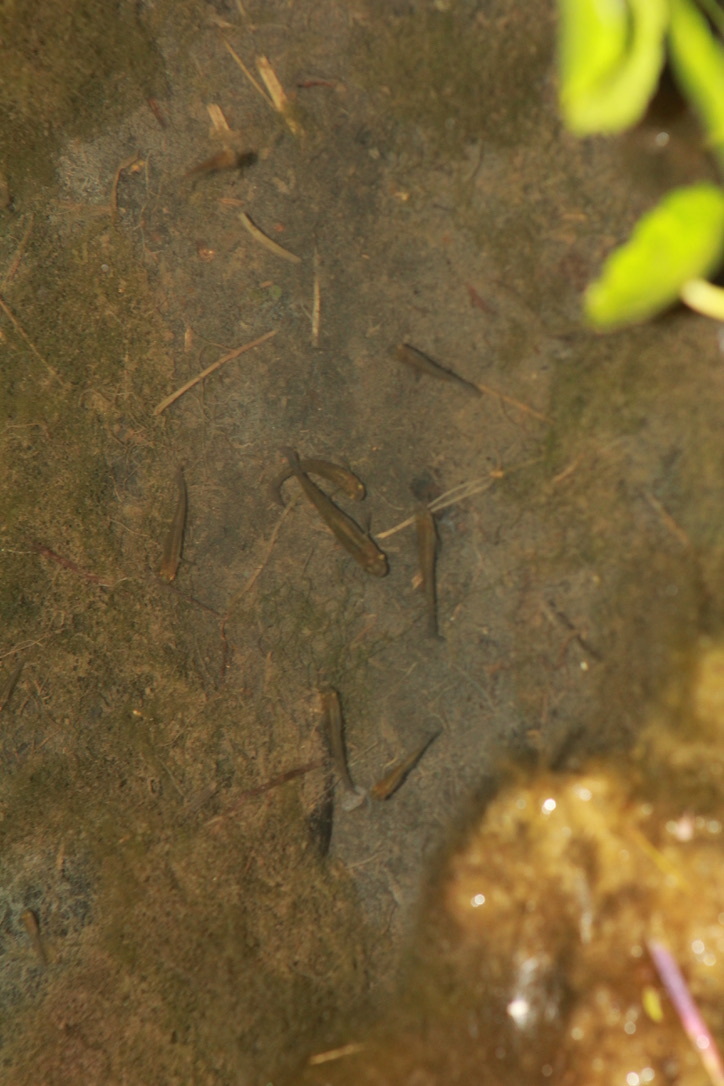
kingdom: Animalia
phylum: Chordata
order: Cyprinodontiformes
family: Poeciliidae
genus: Gambusia
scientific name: Gambusia affinis
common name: Mosquitofish
